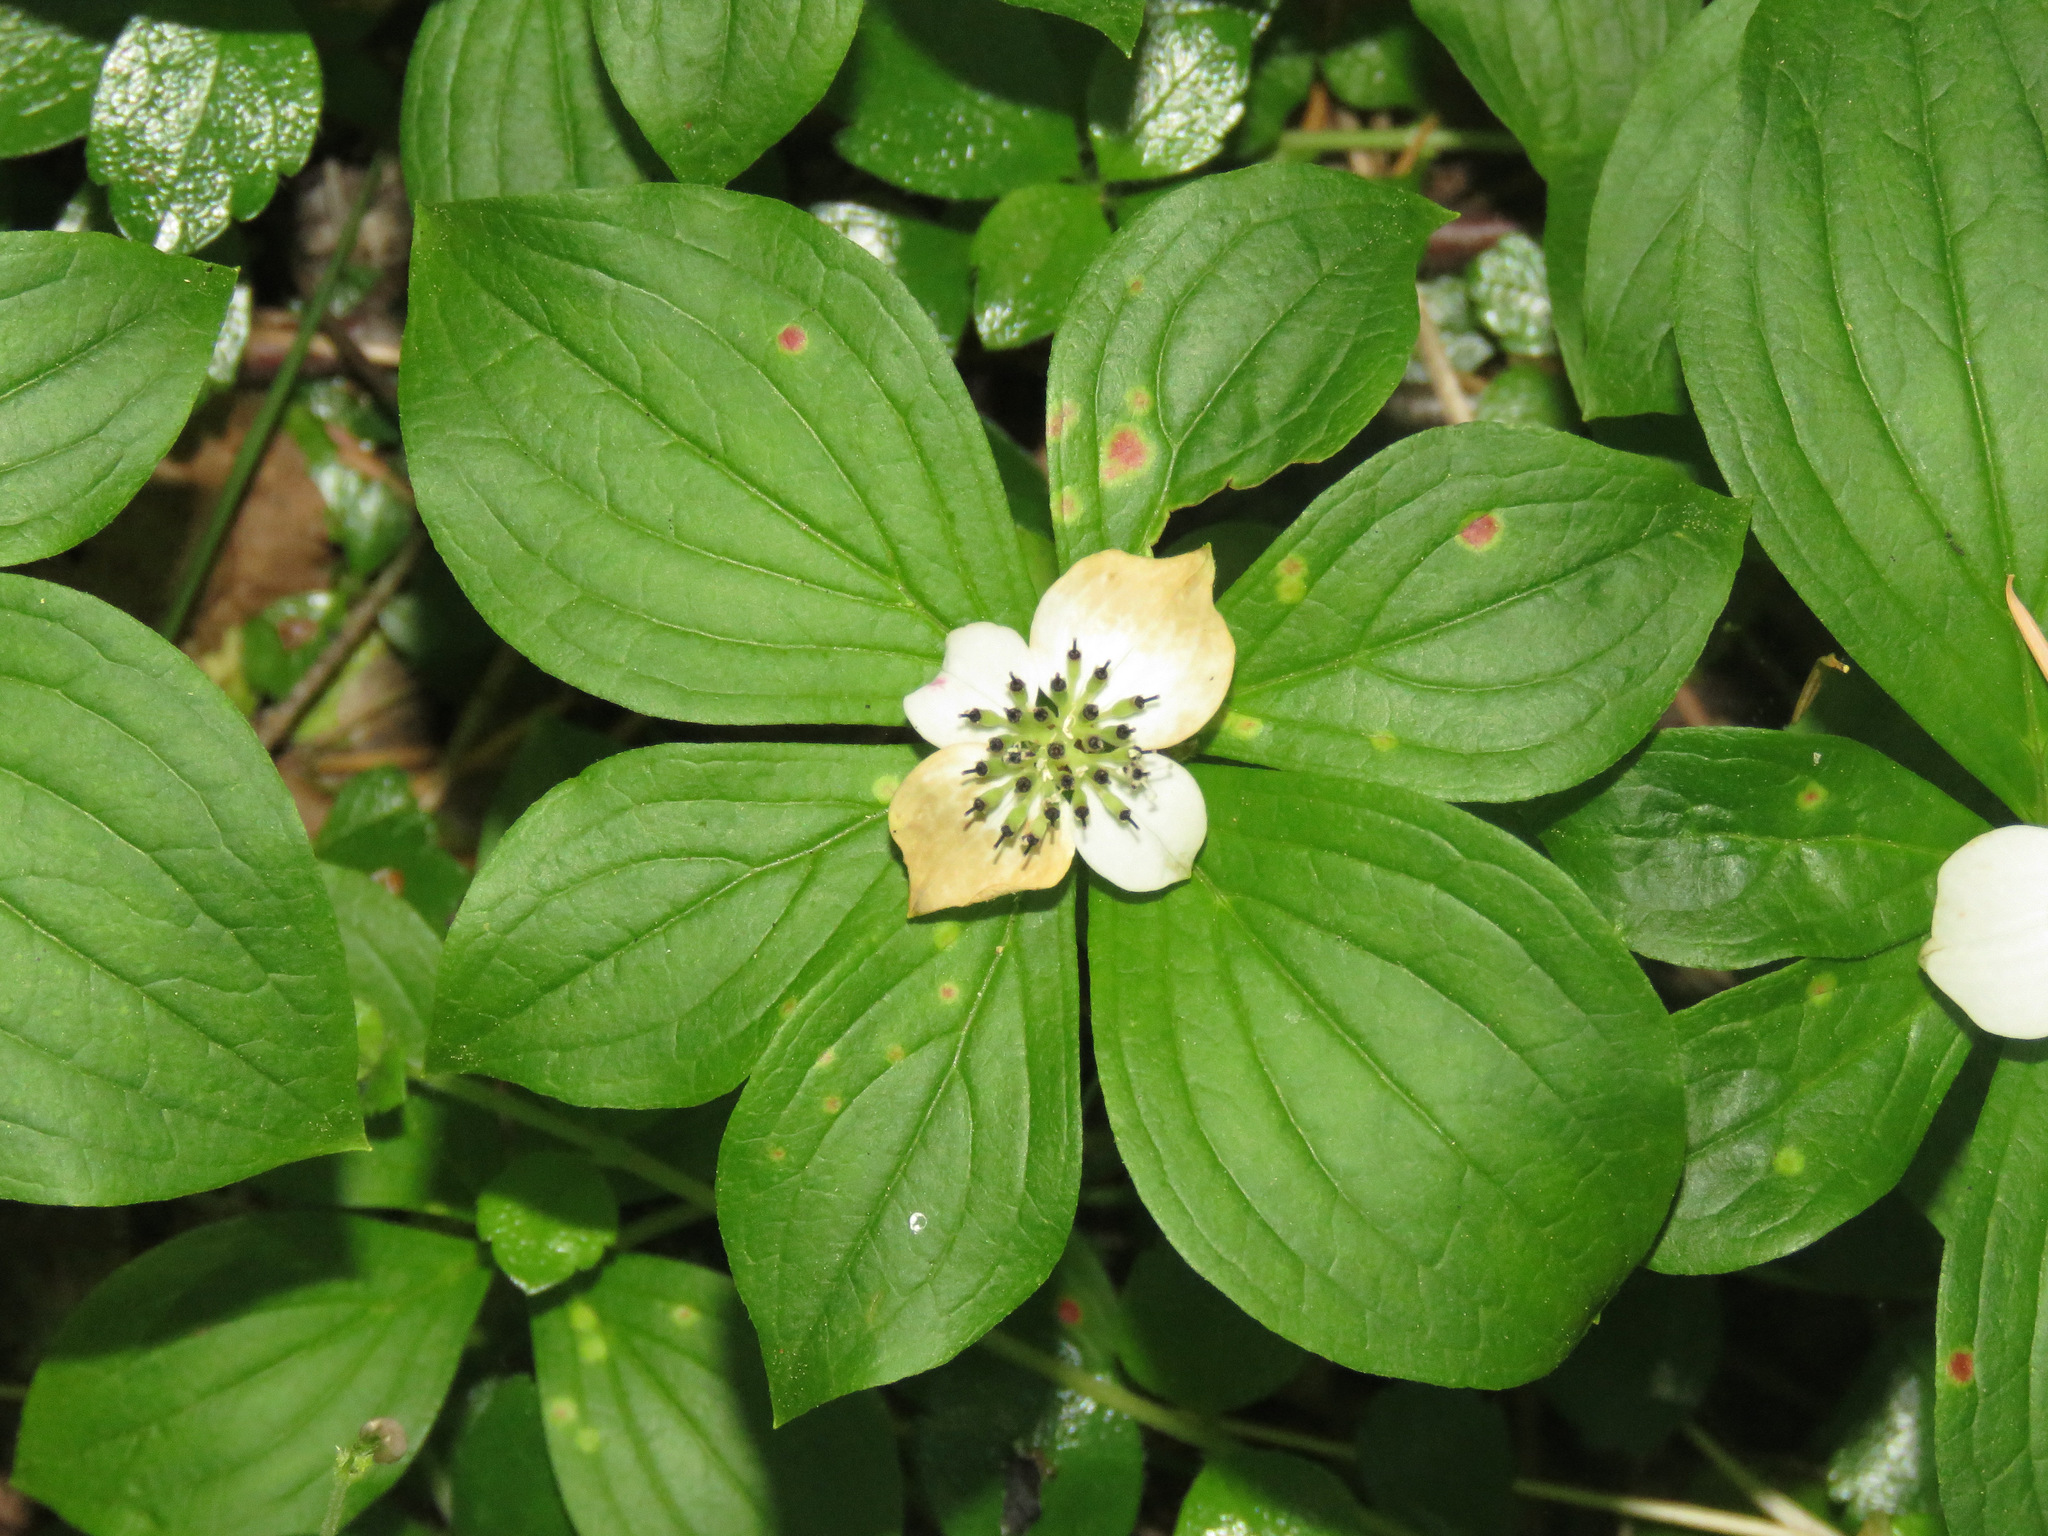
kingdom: Plantae
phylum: Tracheophyta
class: Magnoliopsida
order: Cornales
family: Cornaceae
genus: Cornus
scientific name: Cornus unalaschkensis
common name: Alaska bunchberry
